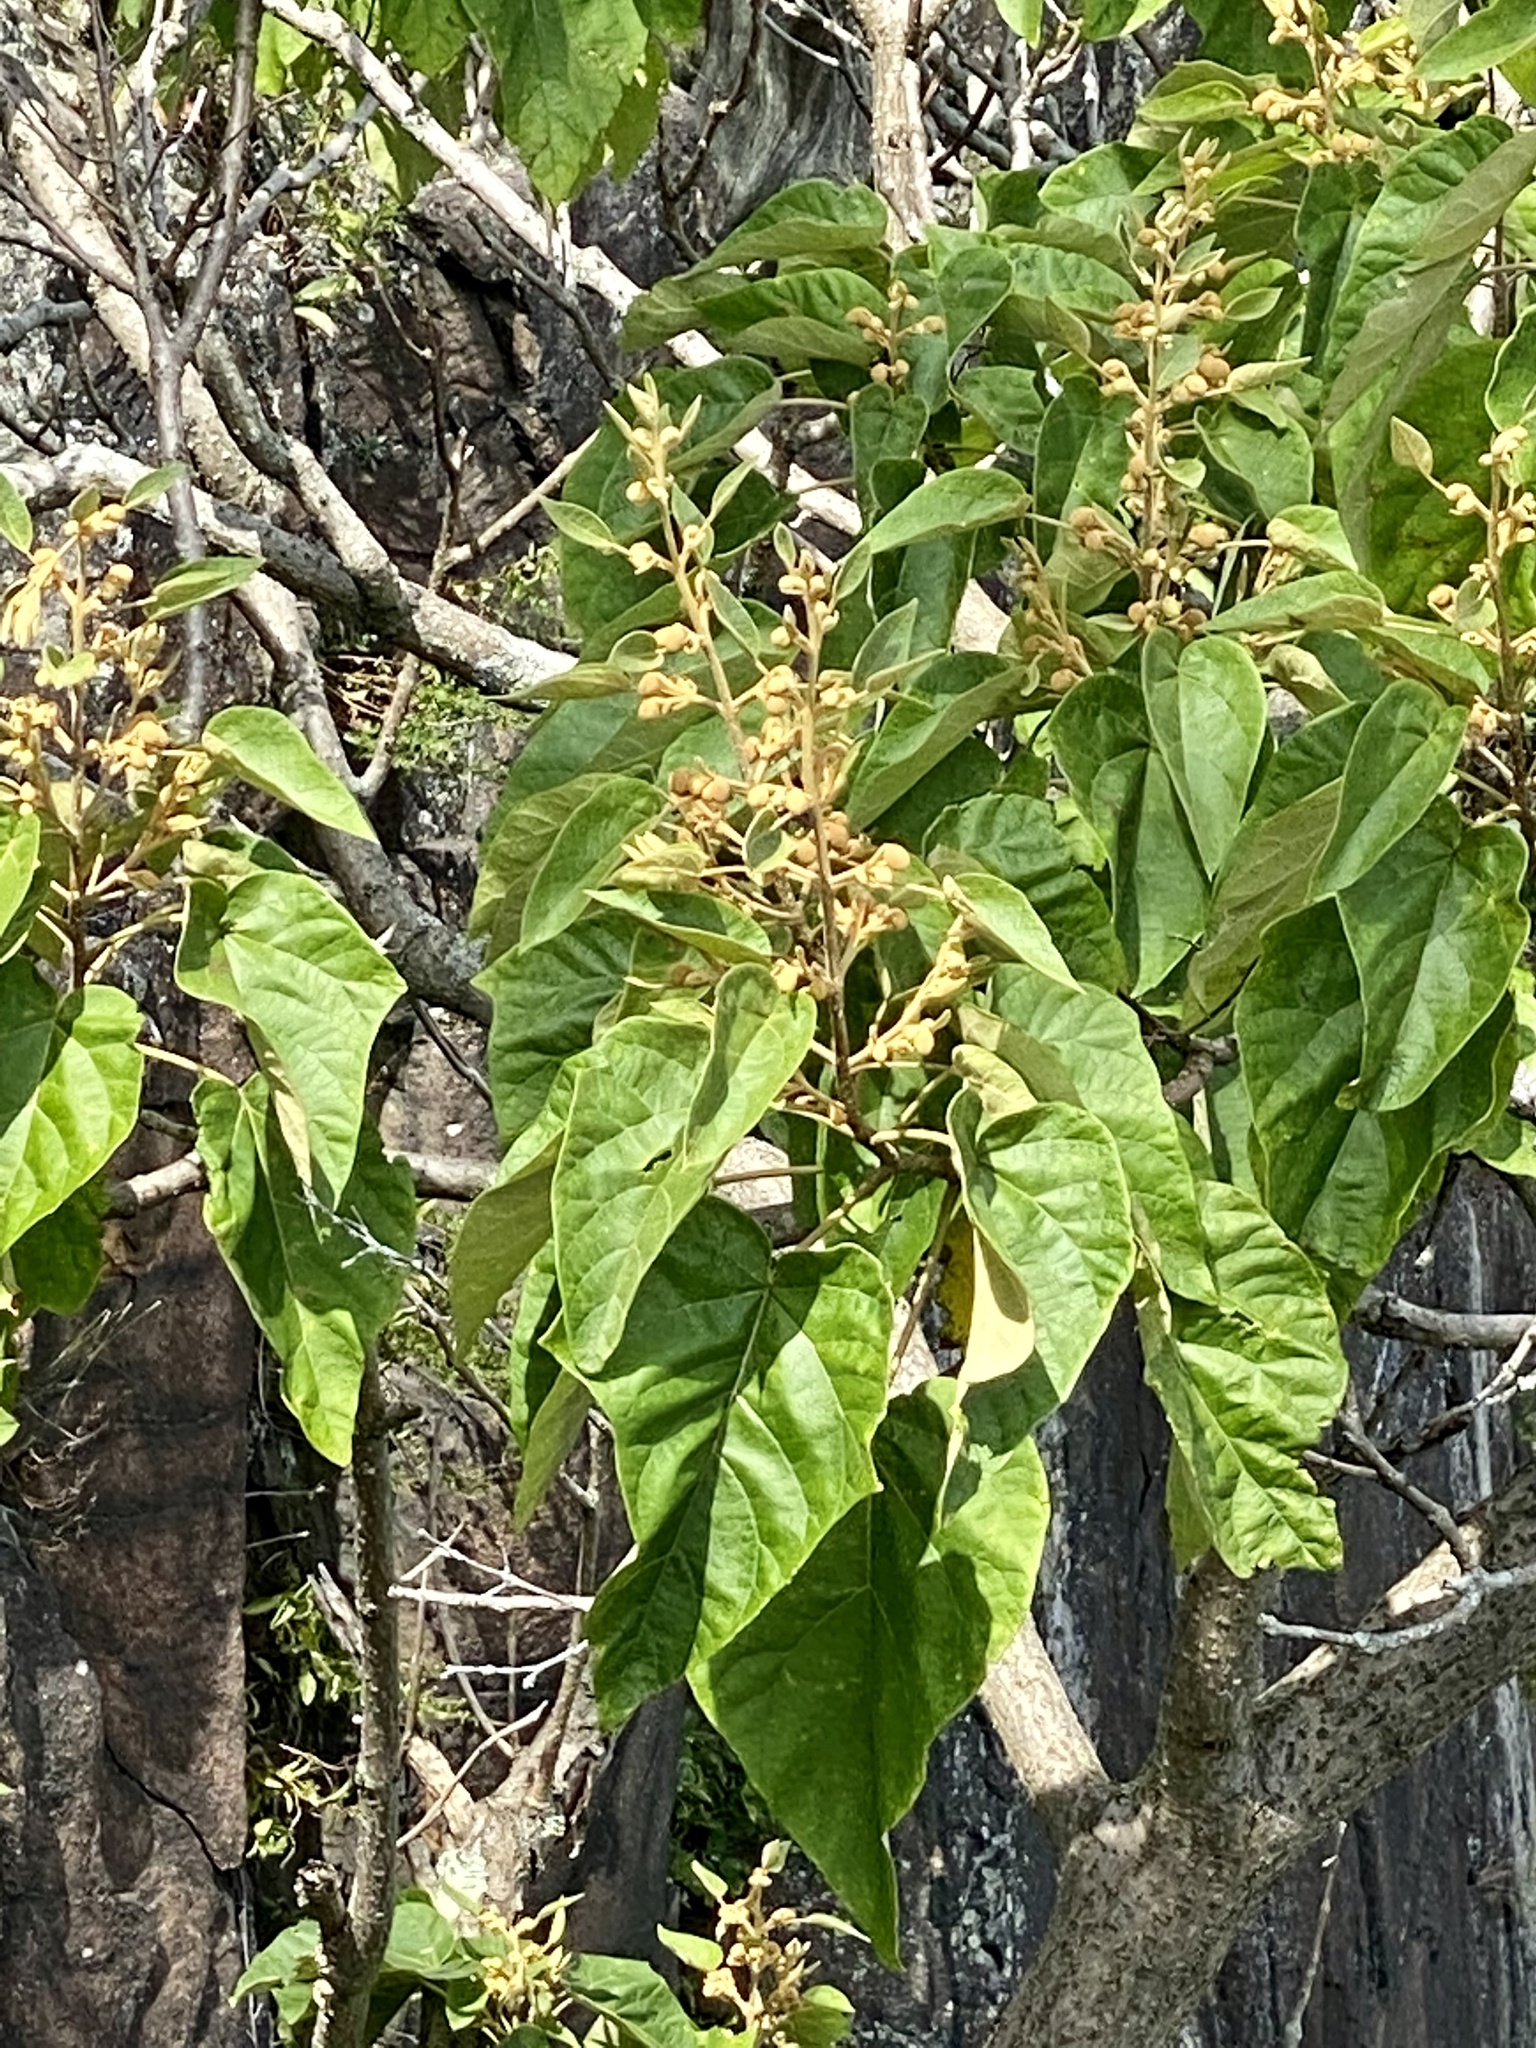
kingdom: Plantae
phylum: Tracheophyta
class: Magnoliopsida
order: Lamiales
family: Paulowniaceae
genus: Paulownia
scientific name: Paulownia tomentosa
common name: Foxglove-tree
